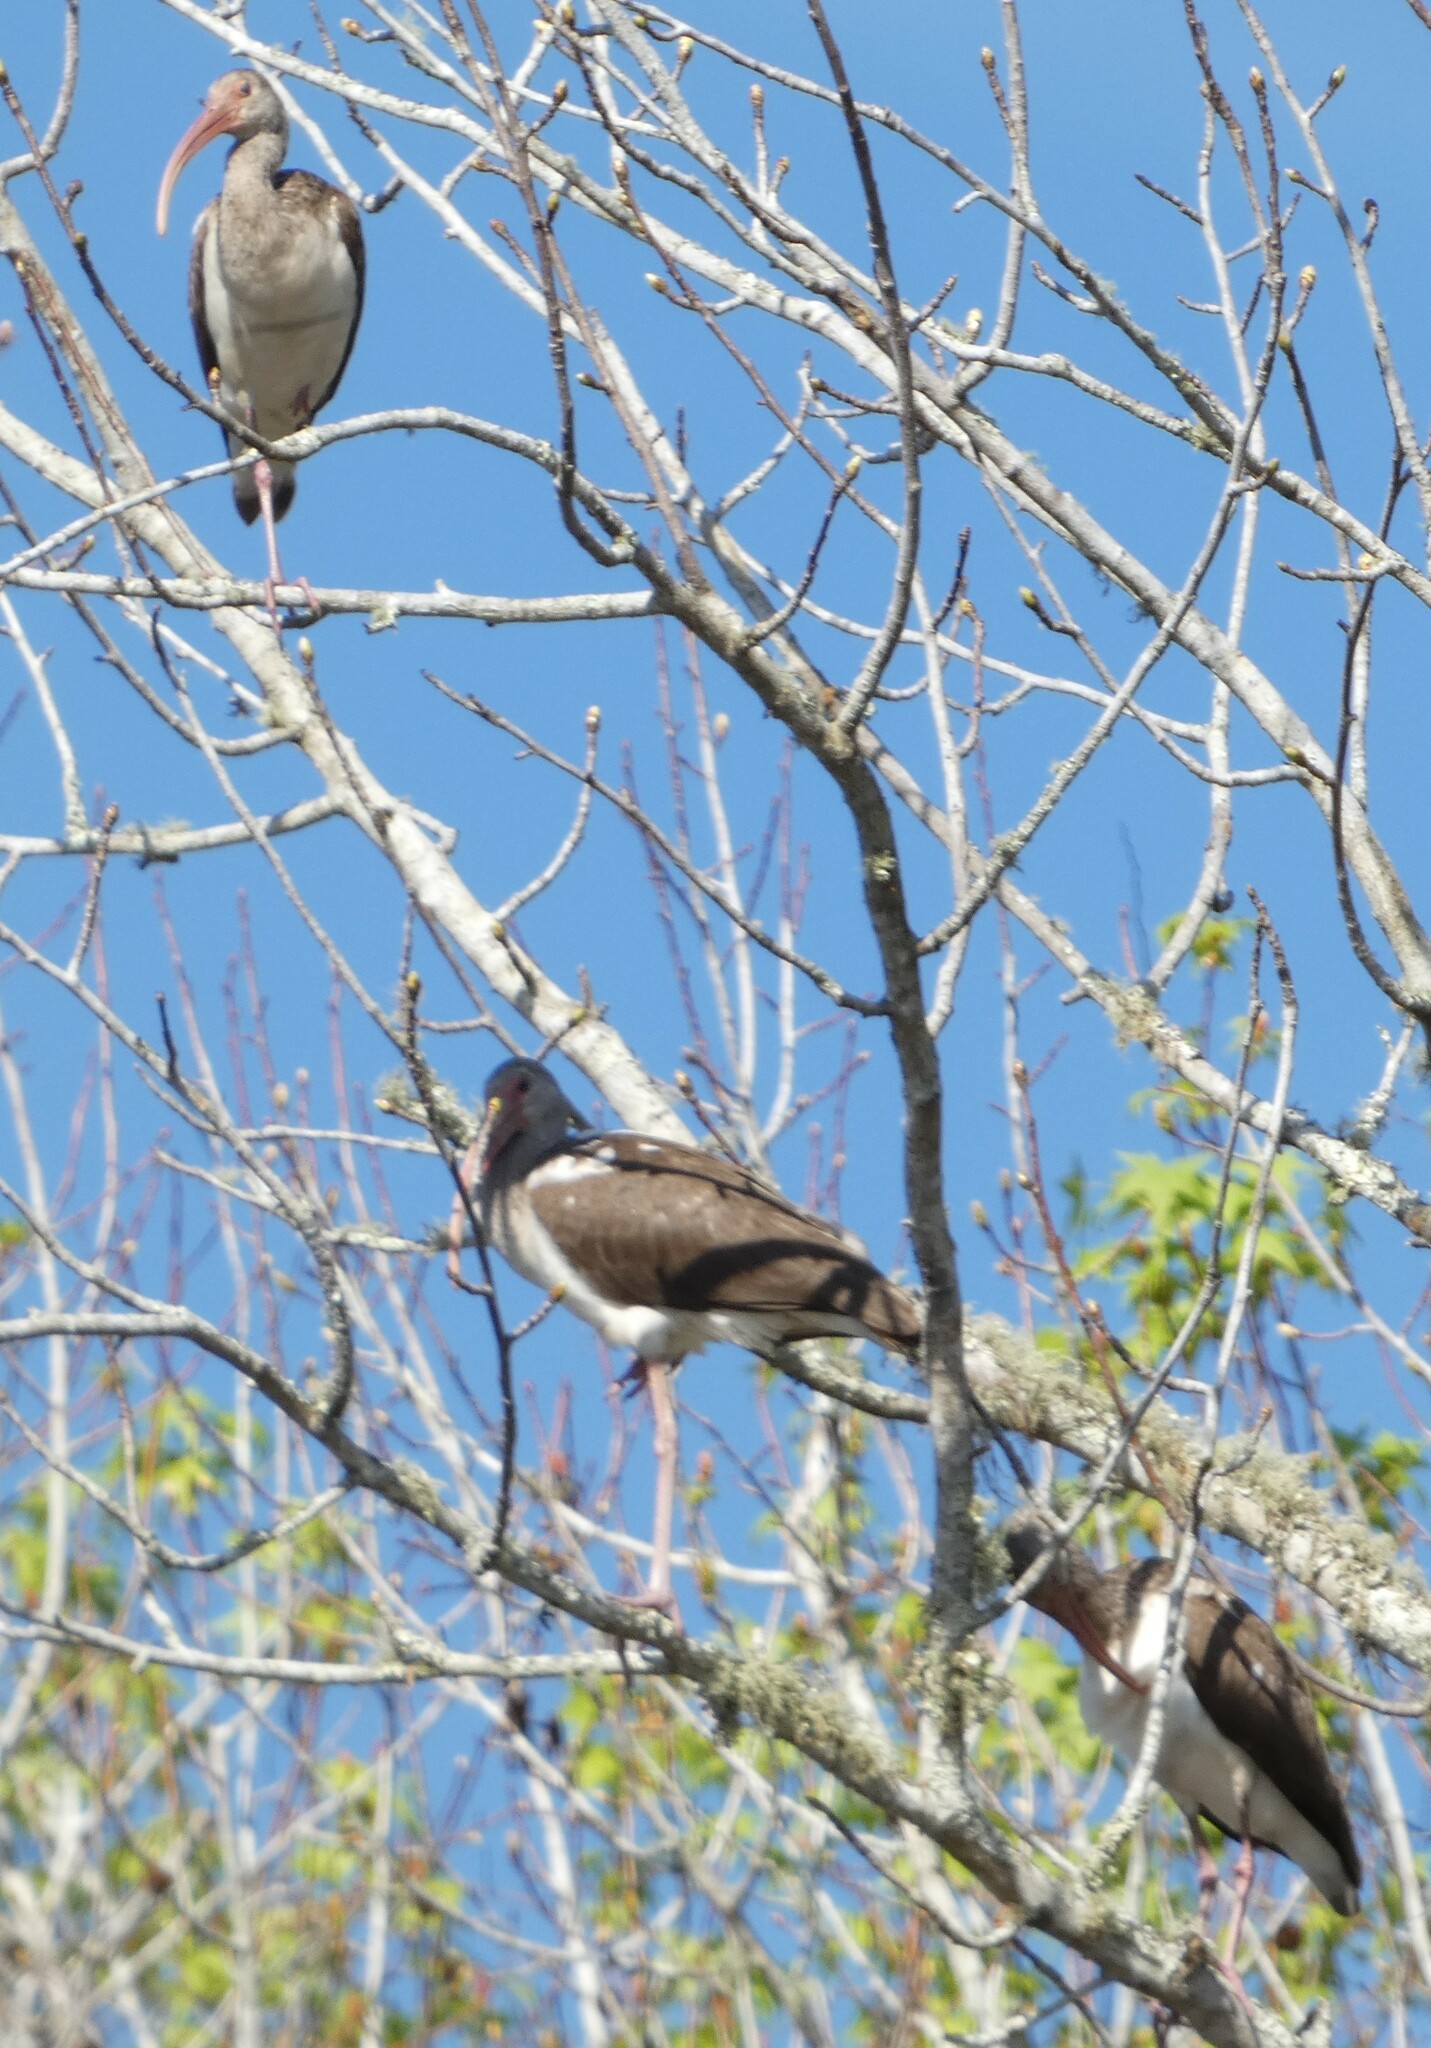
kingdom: Animalia
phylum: Chordata
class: Aves
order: Pelecaniformes
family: Threskiornithidae
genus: Eudocimus
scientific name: Eudocimus albus
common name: White ibis
